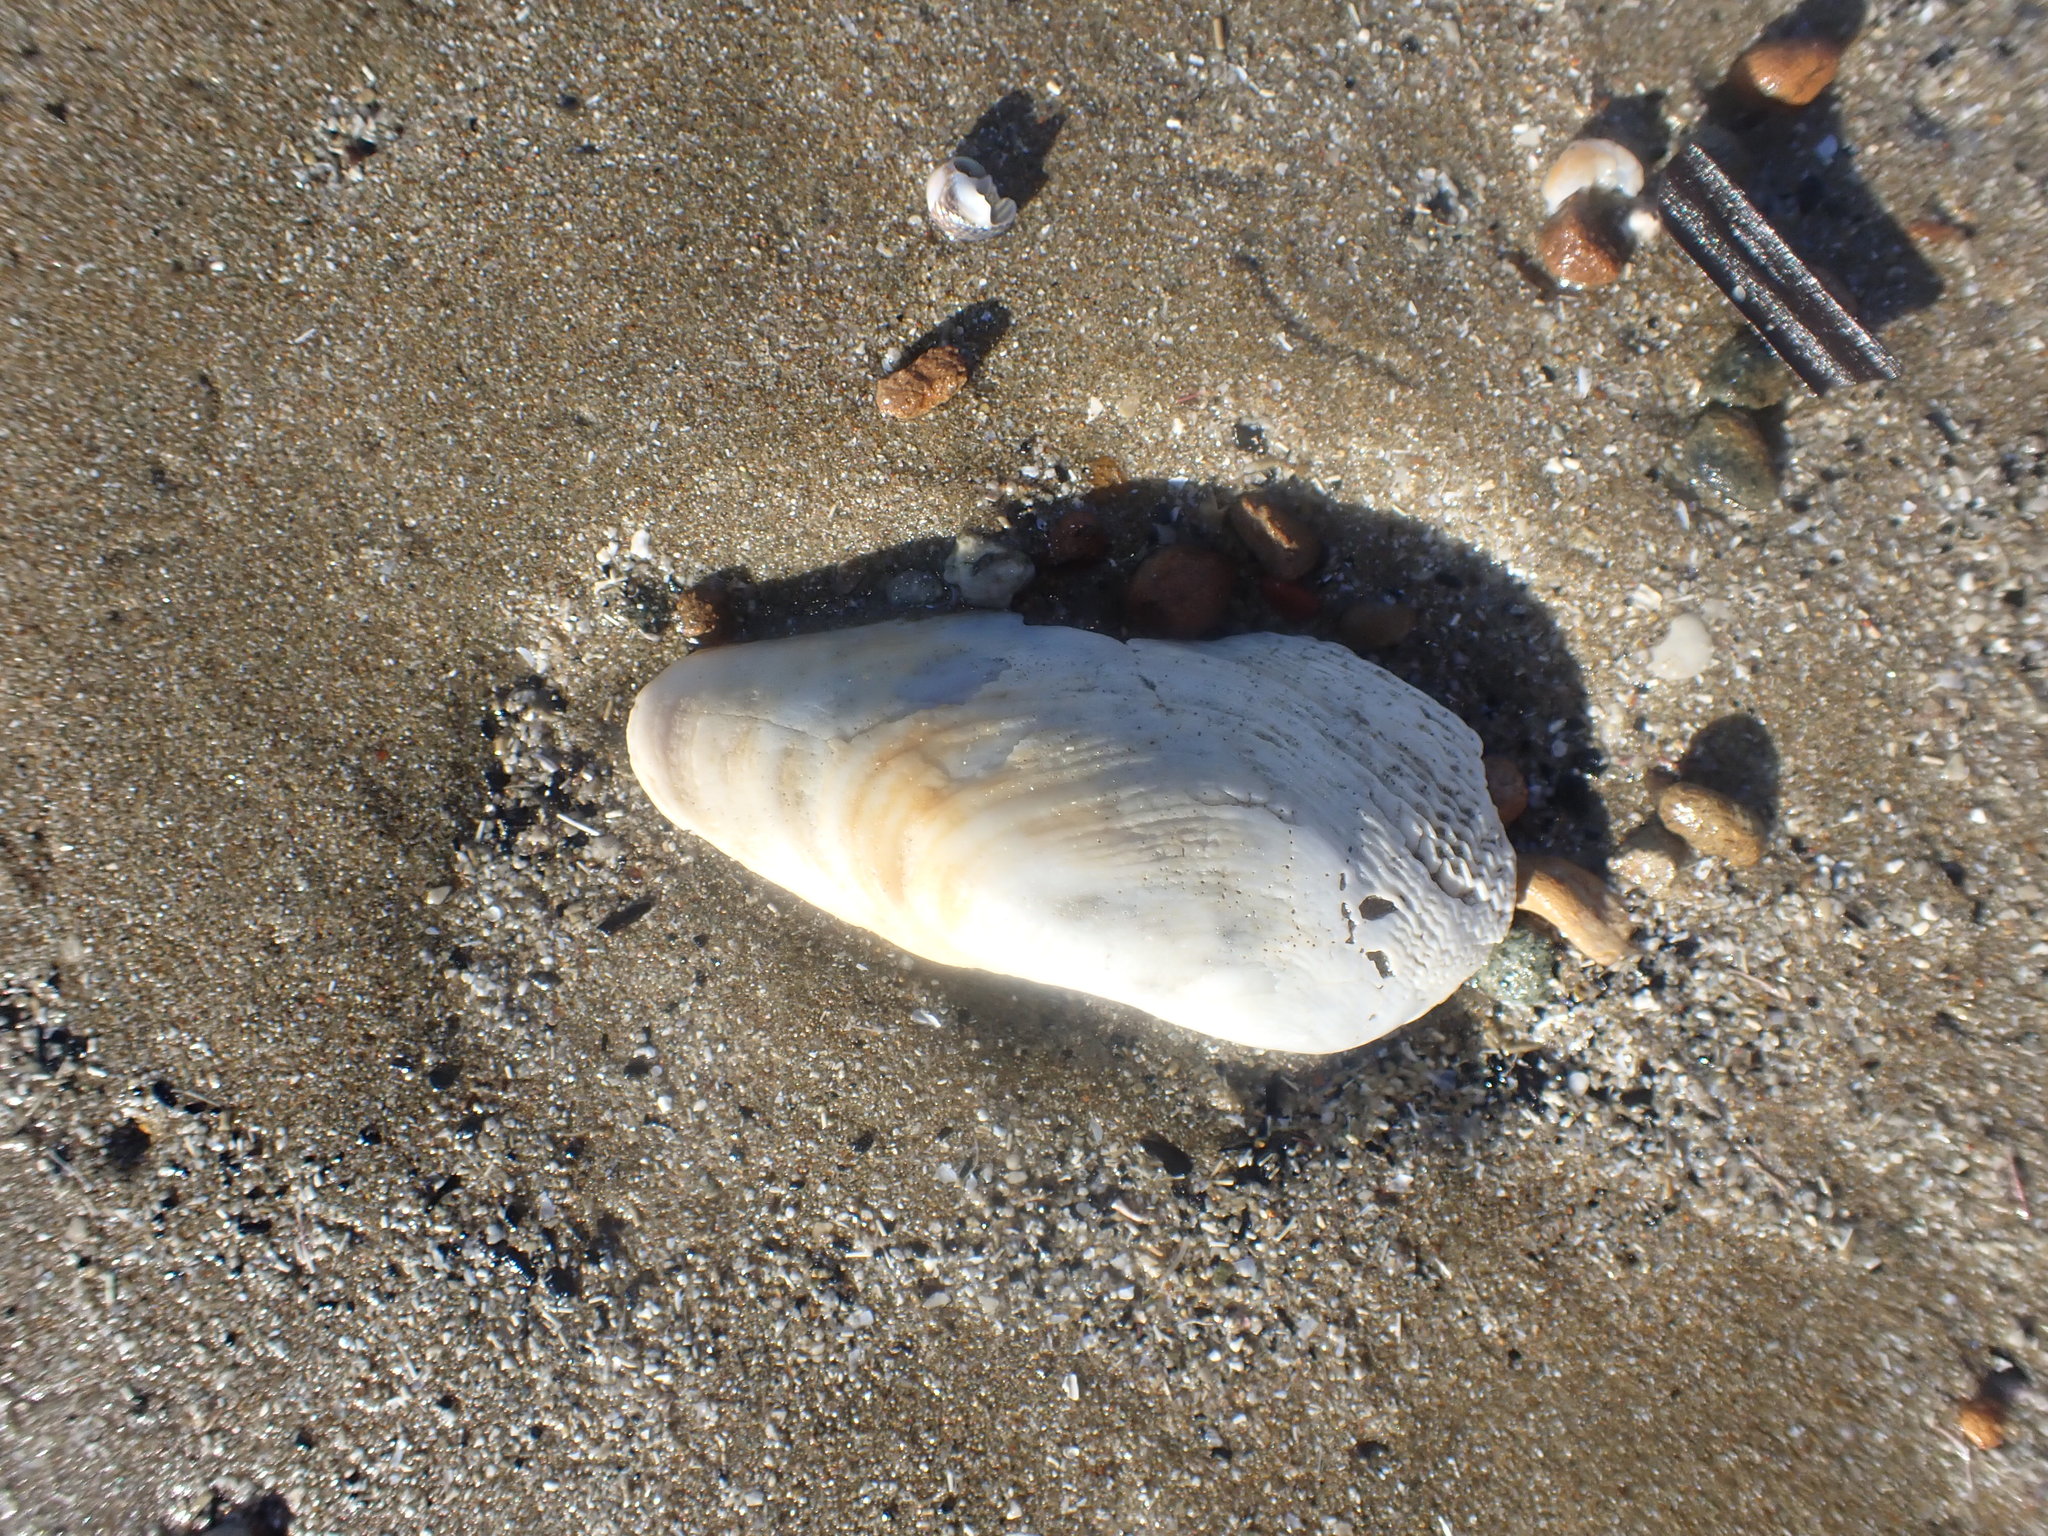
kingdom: Animalia
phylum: Mollusca
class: Bivalvia
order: Myida
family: Pholadidae
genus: Barnea
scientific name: Barnea similis
